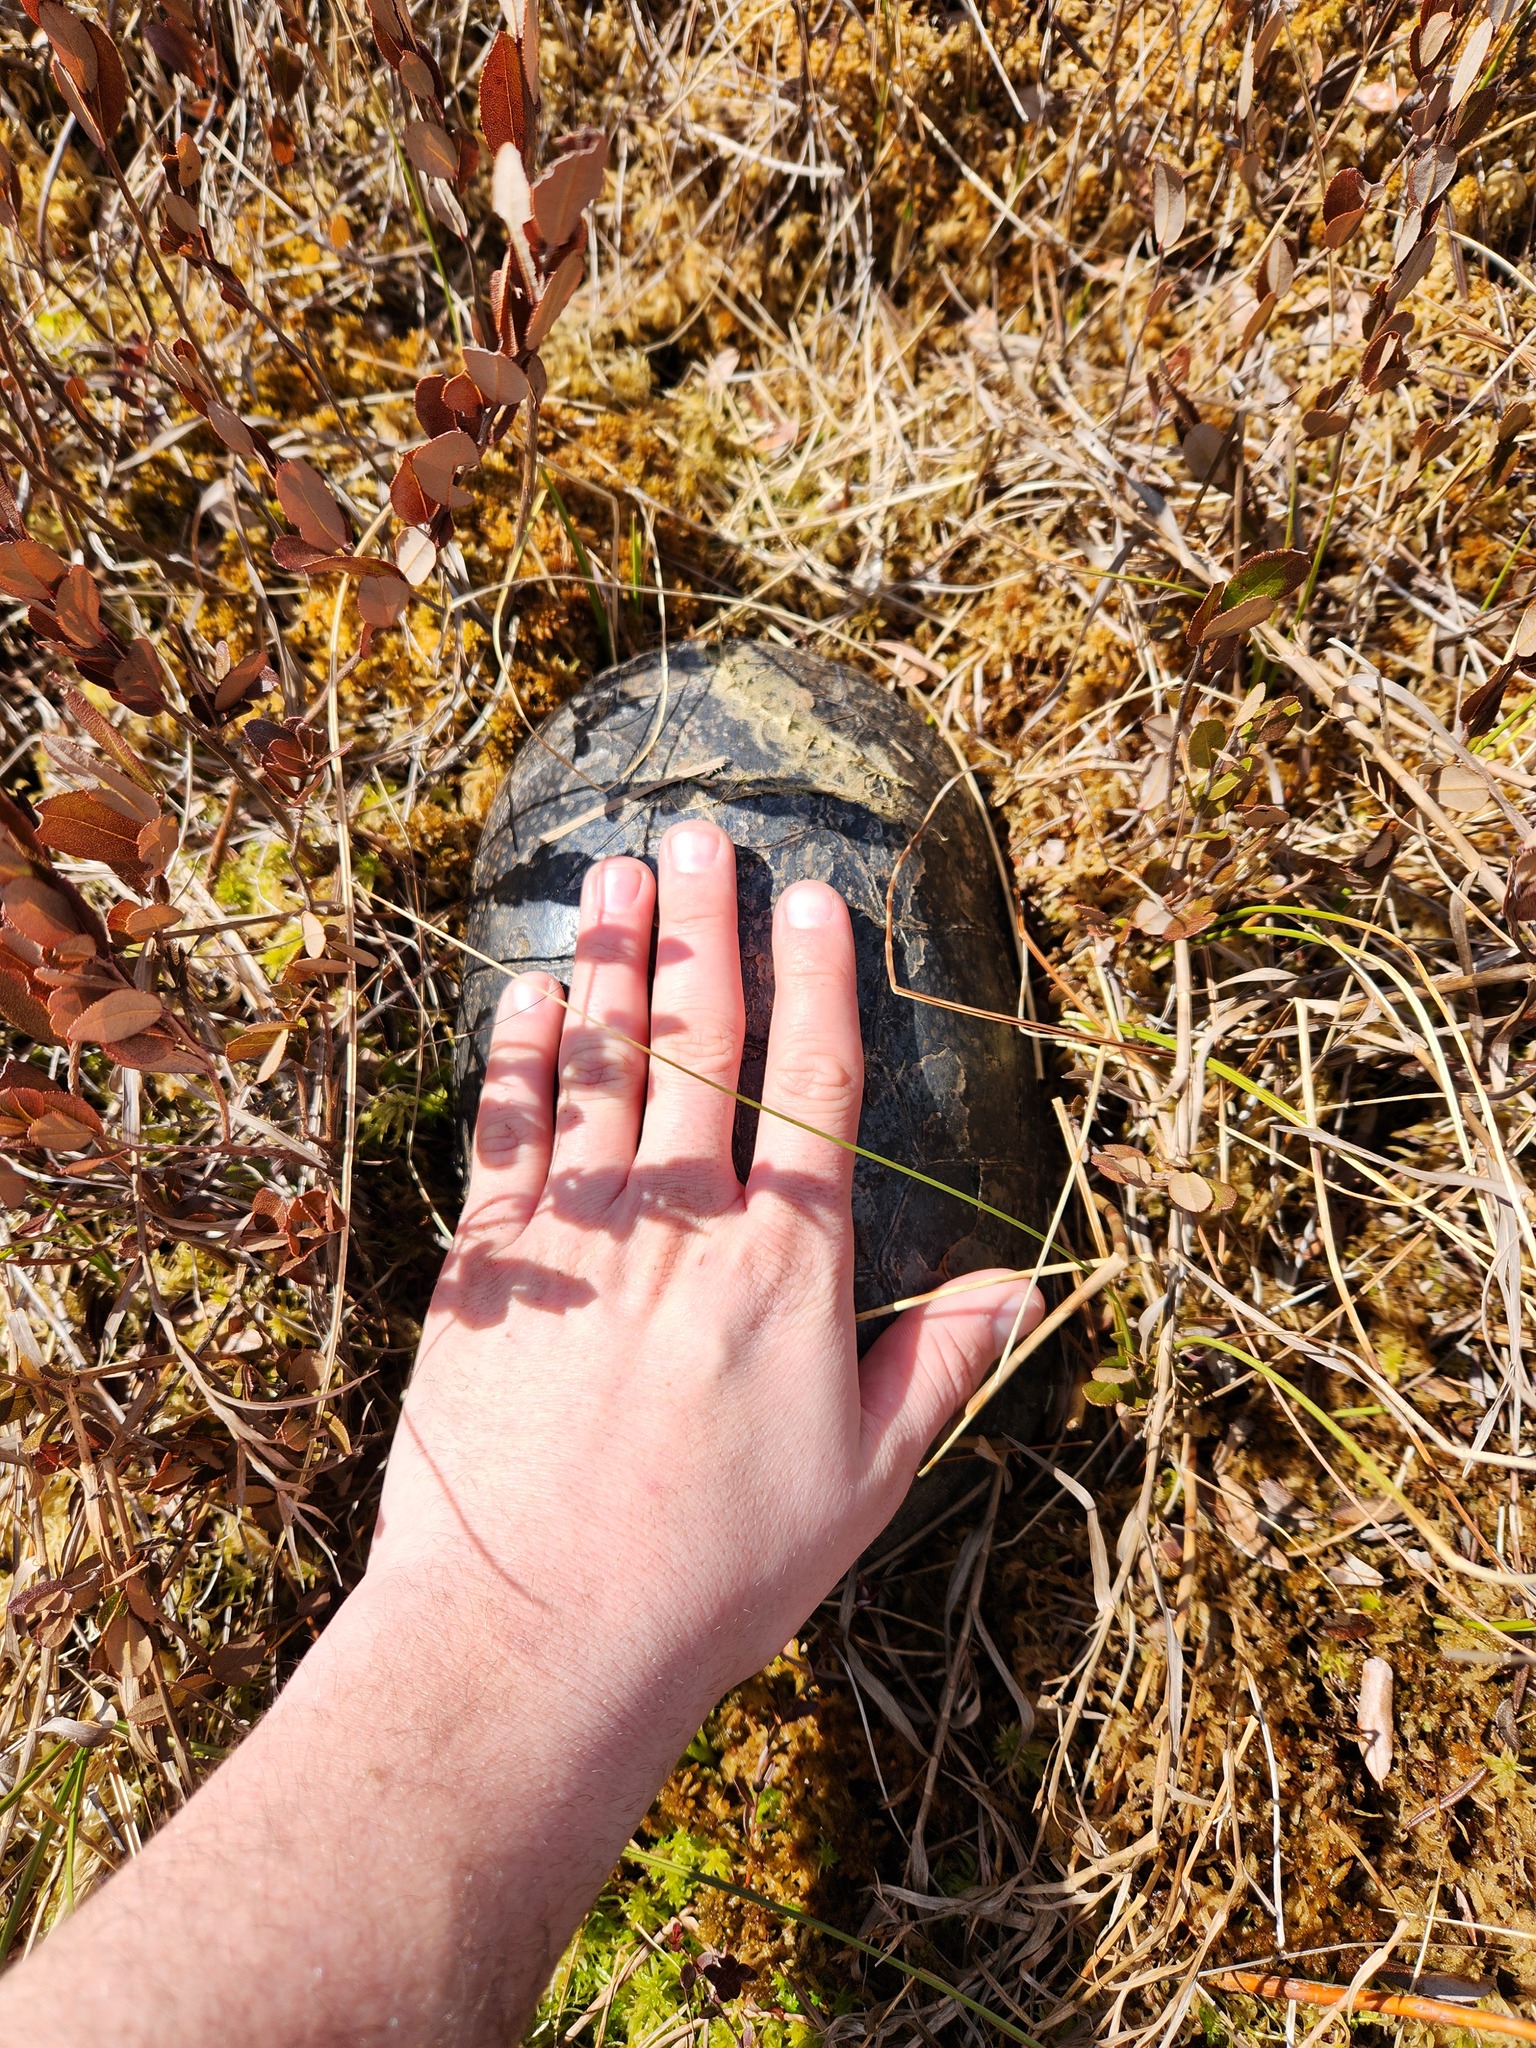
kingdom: Animalia
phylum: Chordata
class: Testudines
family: Emydidae
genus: Emys
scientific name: Emys blandingii
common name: Blanding's turtle
